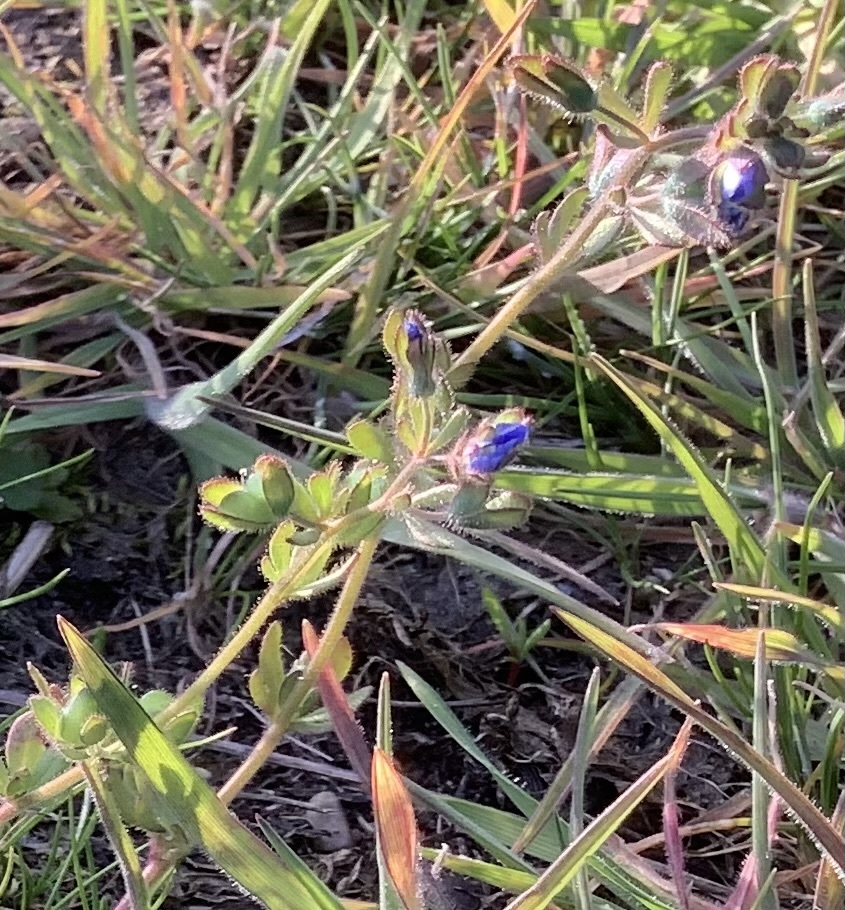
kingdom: Plantae
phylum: Tracheophyta
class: Magnoliopsida
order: Lamiales
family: Plantaginaceae
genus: Veronica
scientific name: Veronica triphyllos
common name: Fingered speedwell
